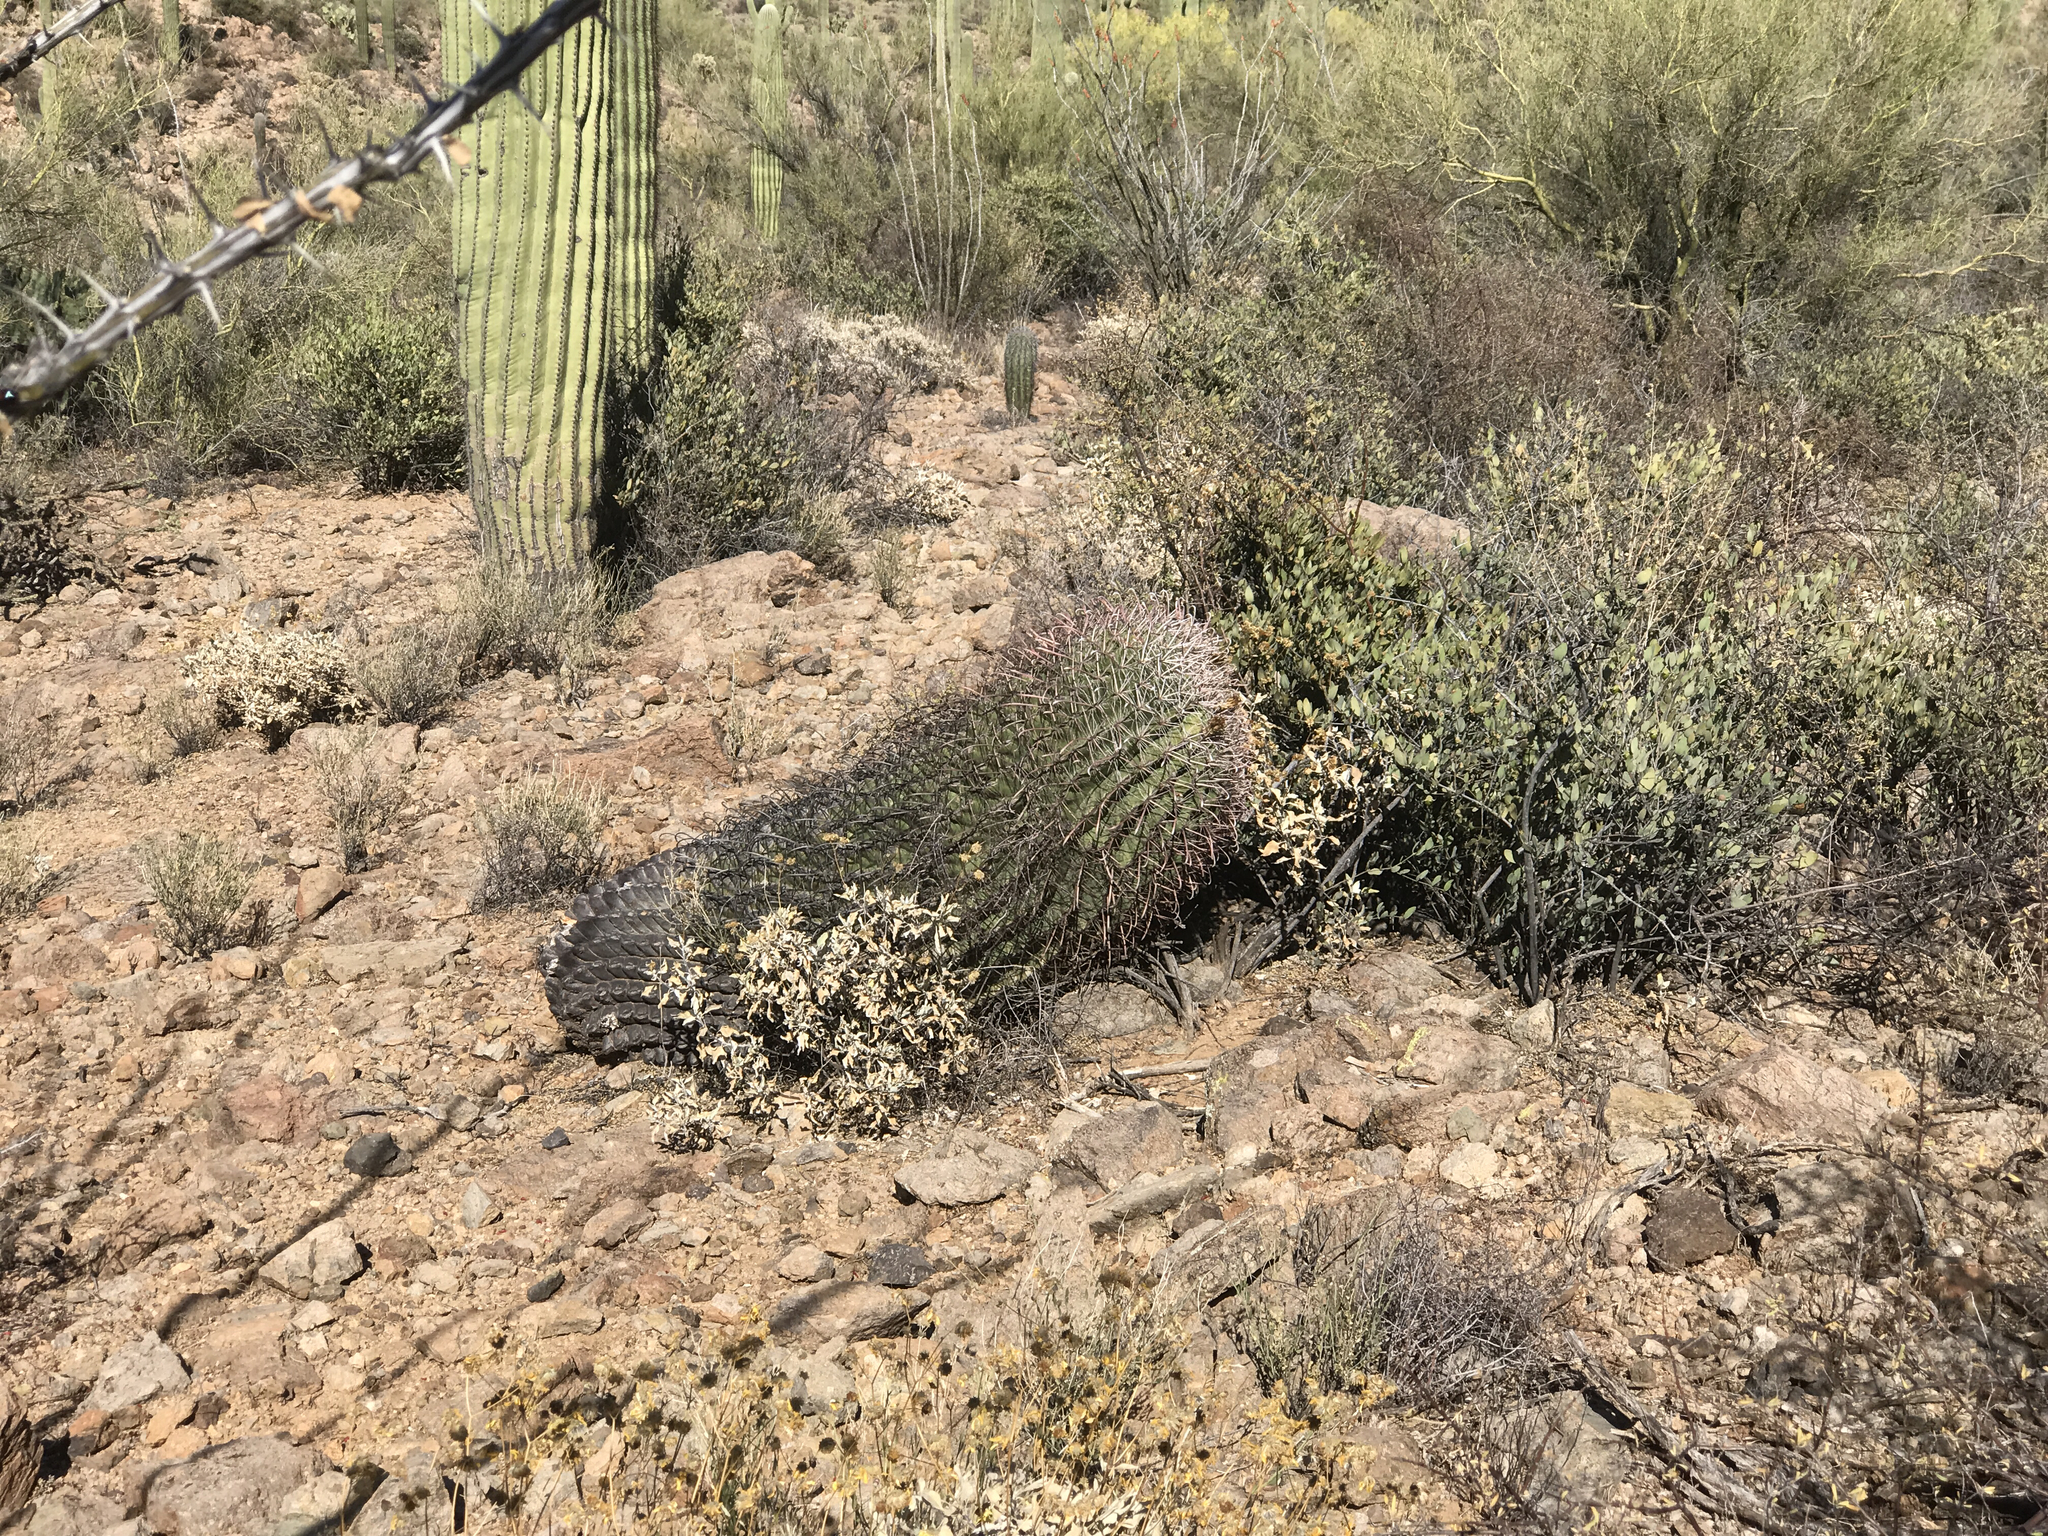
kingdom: Plantae
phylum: Tracheophyta
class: Magnoliopsida
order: Caryophyllales
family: Cactaceae
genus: Ferocactus
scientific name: Ferocactus wislizeni
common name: Candy barrel cactus
